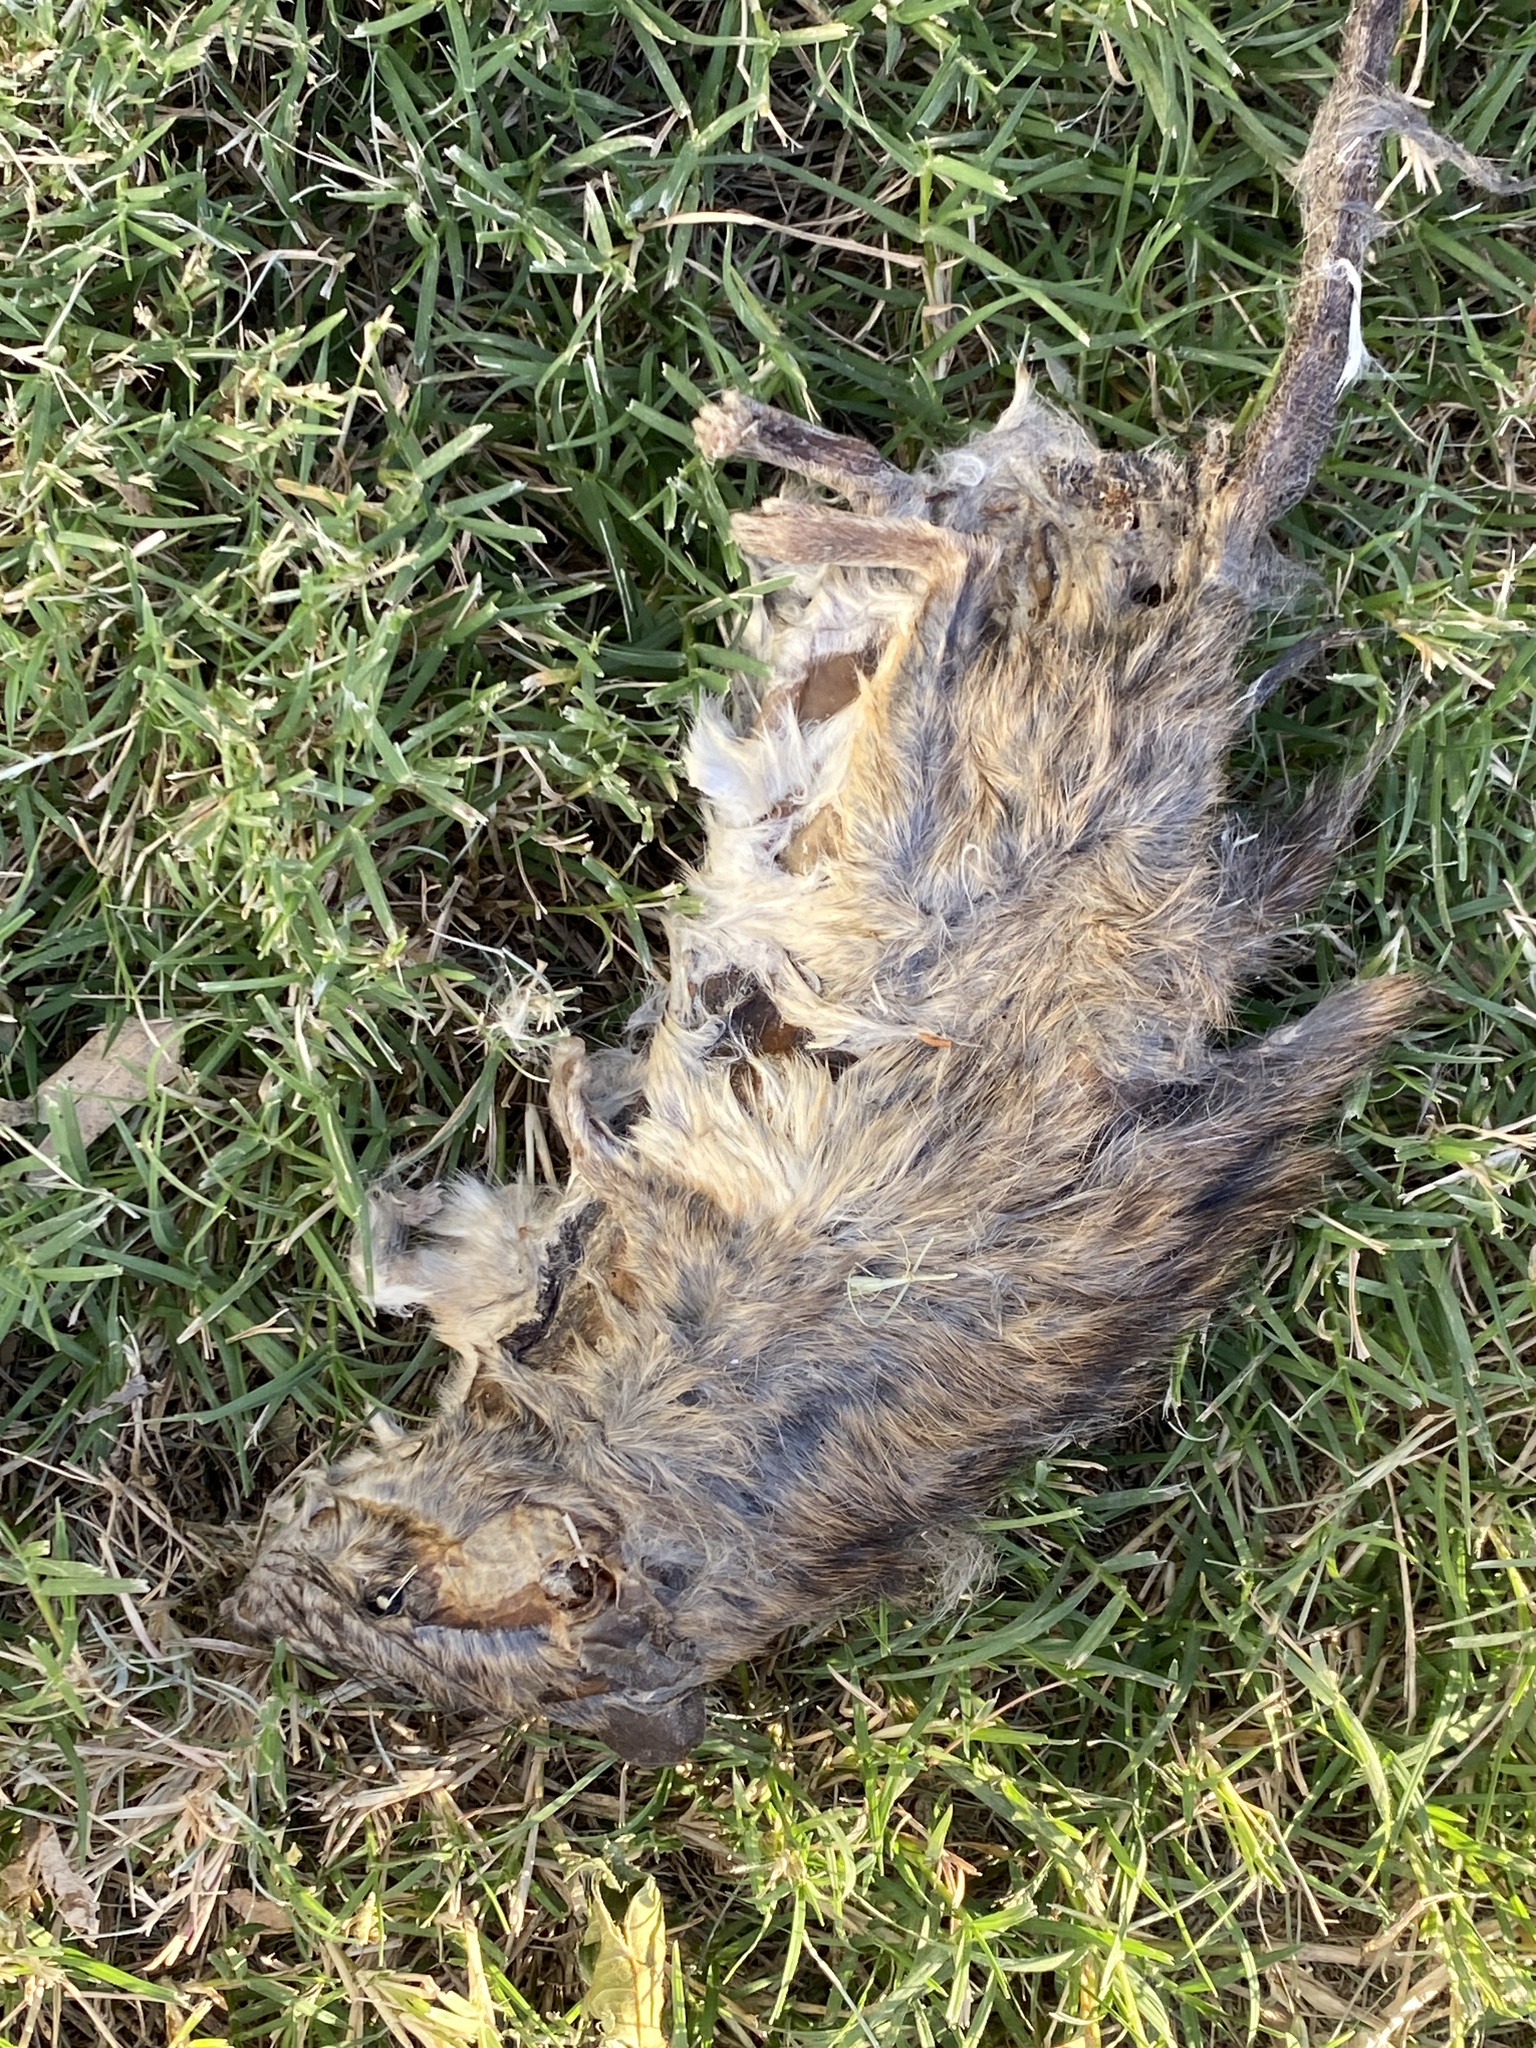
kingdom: Animalia
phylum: Chordata
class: Mammalia
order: Rodentia
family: Muridae
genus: Rattus
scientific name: Rattus rattus
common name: Black rat
